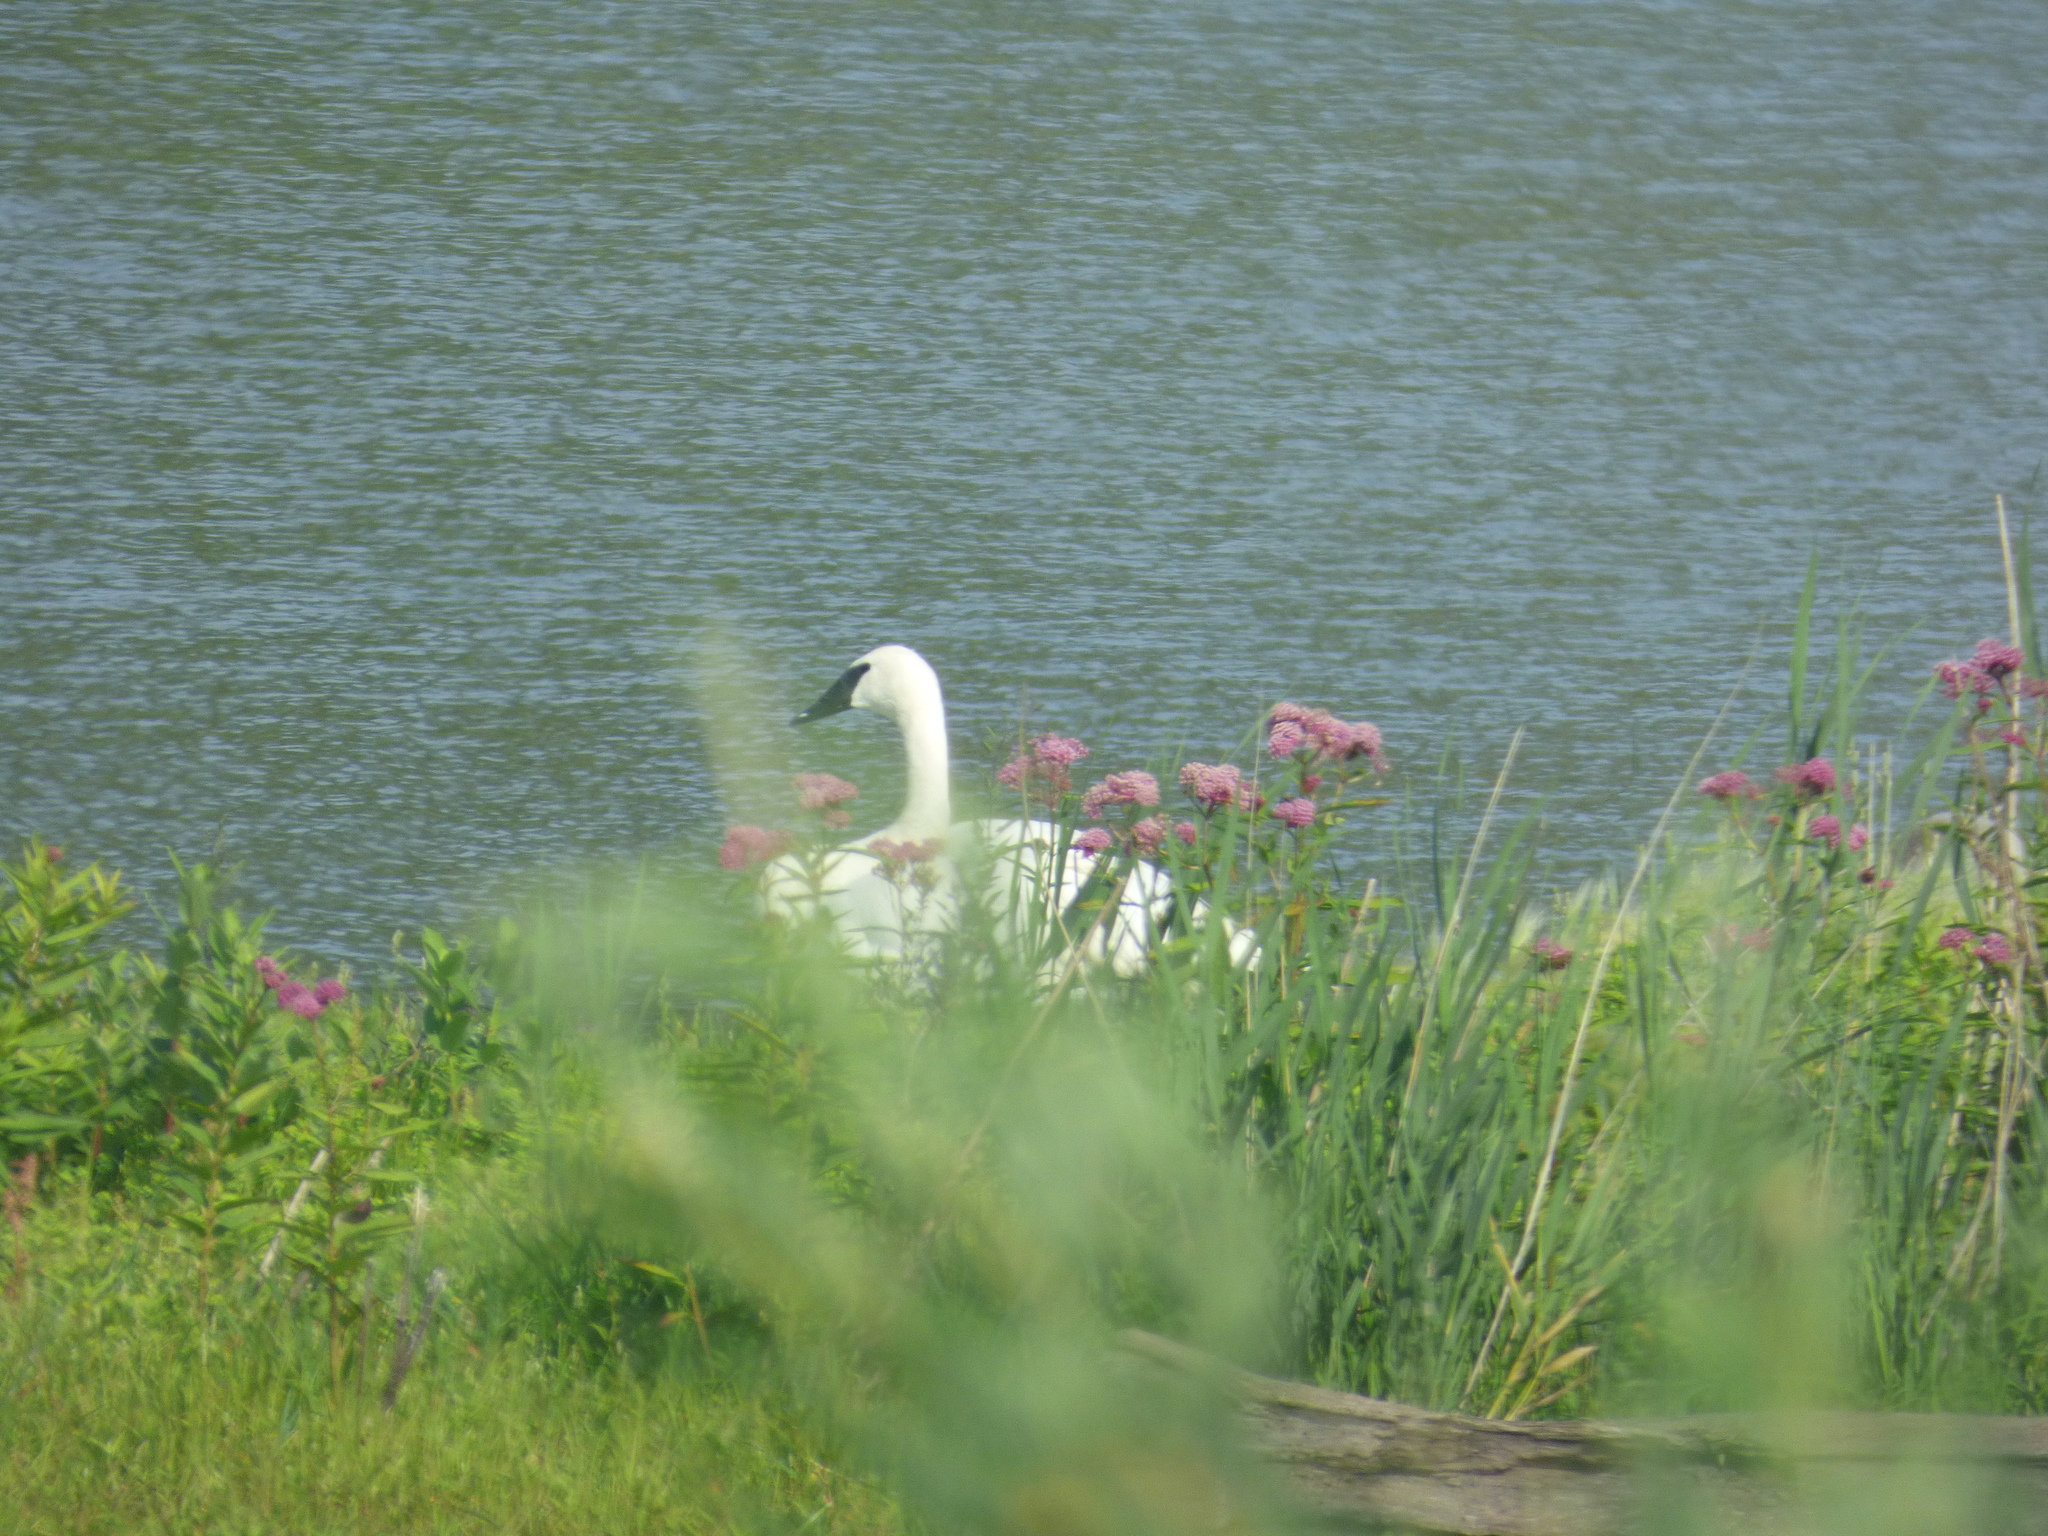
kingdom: Animalia
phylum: Chordata
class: Aves
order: Anseriformes
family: Anatidae
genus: Cygnus
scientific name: Cygnus buccinator
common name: Trumpeter swan
